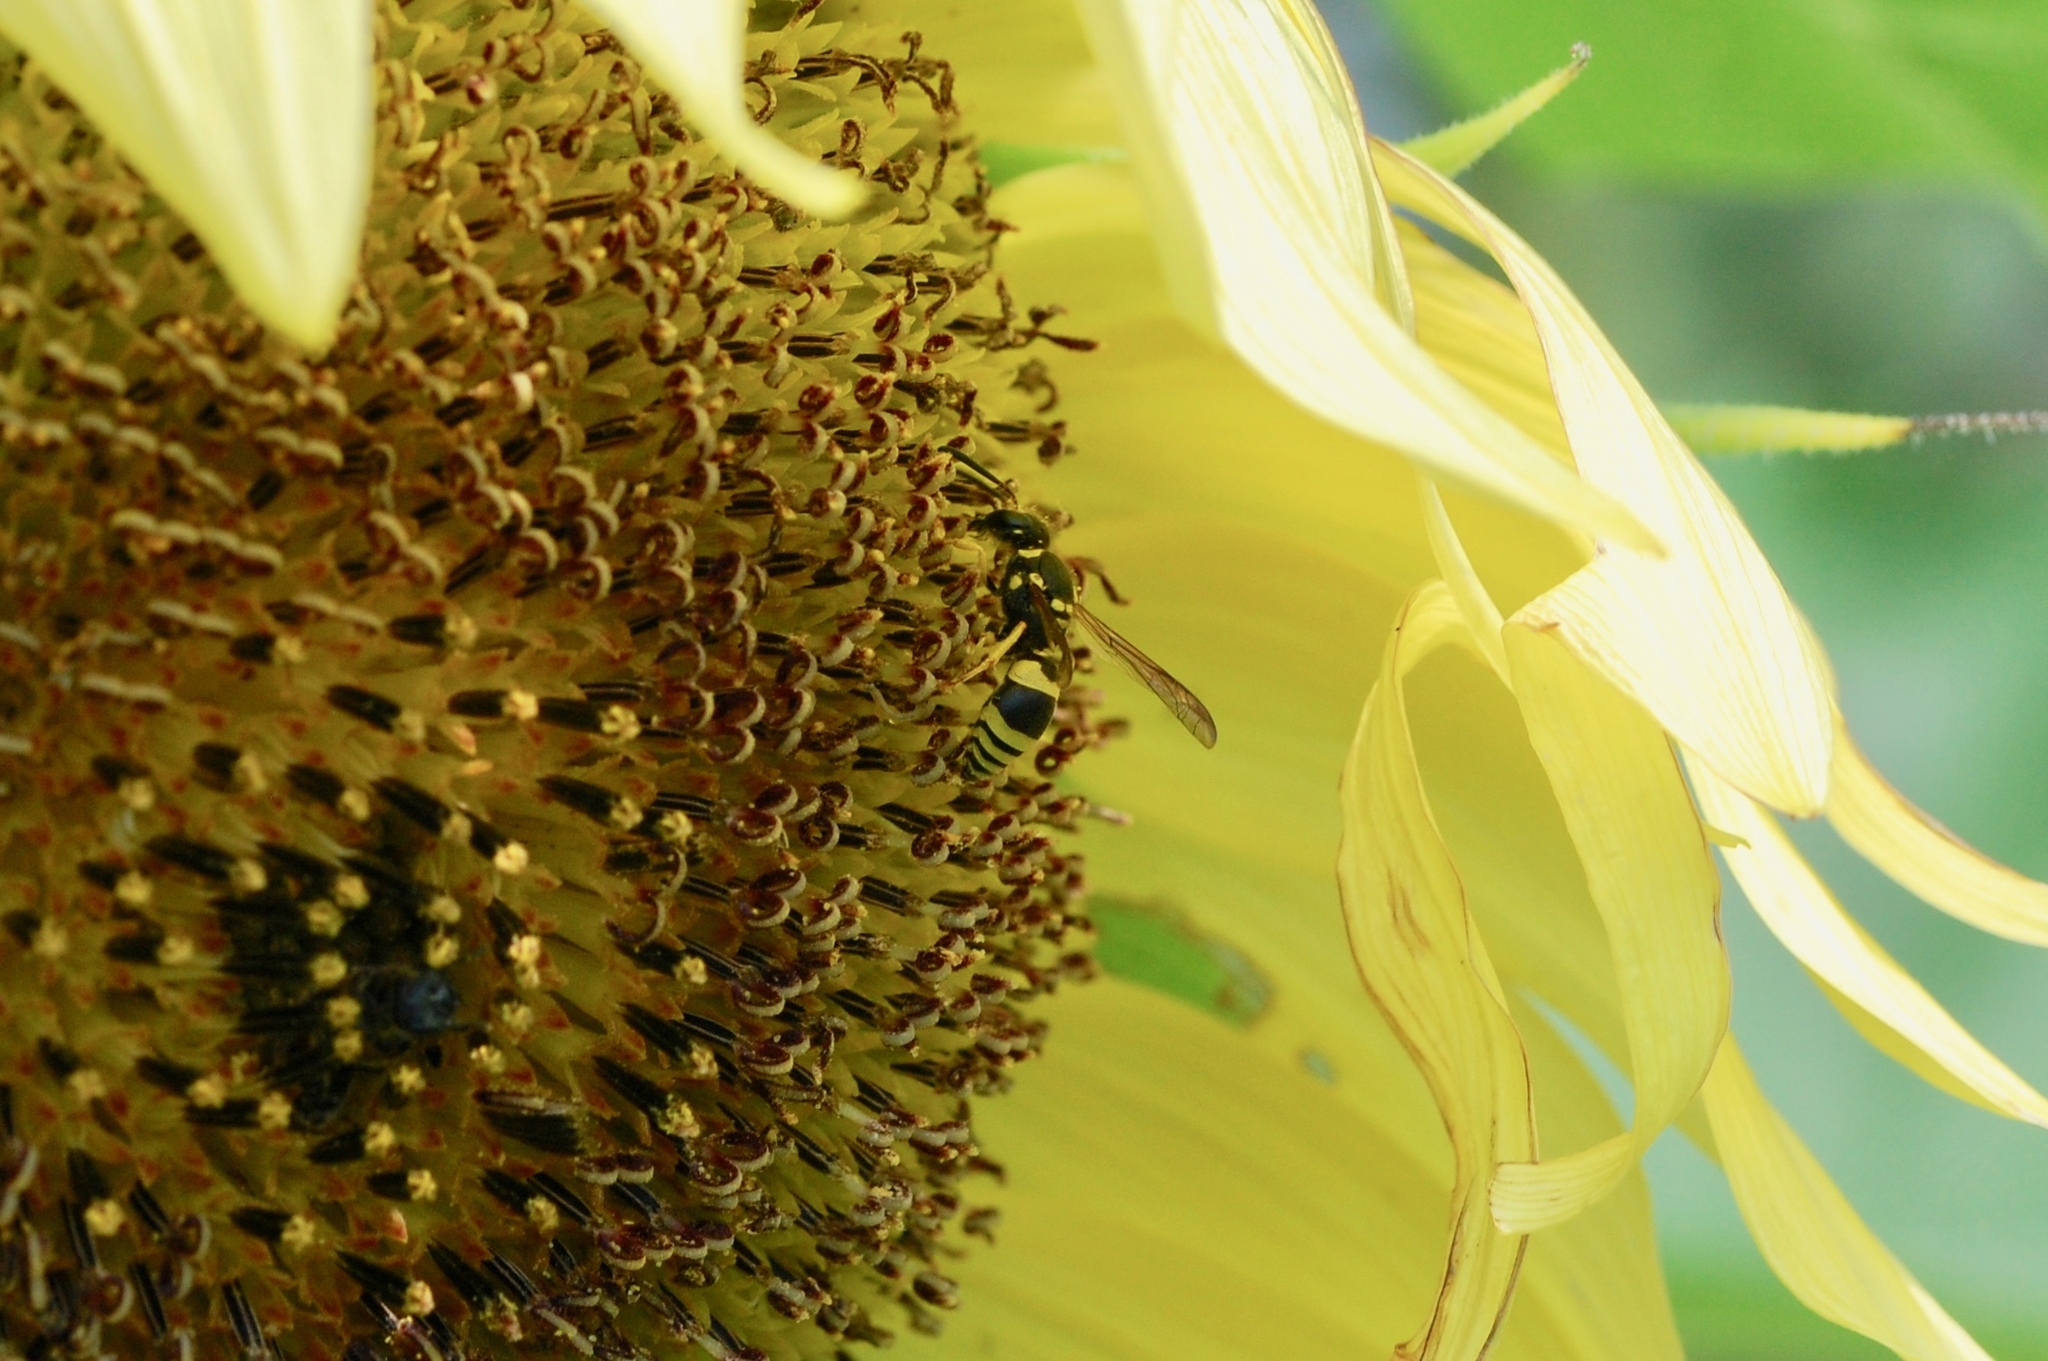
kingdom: Animalia
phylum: Arthropoda
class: Insecta
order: Hymenoptera
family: Vespidae
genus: Ancistrocerus
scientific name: Ancistrocerus gazella
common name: European tube wasp
